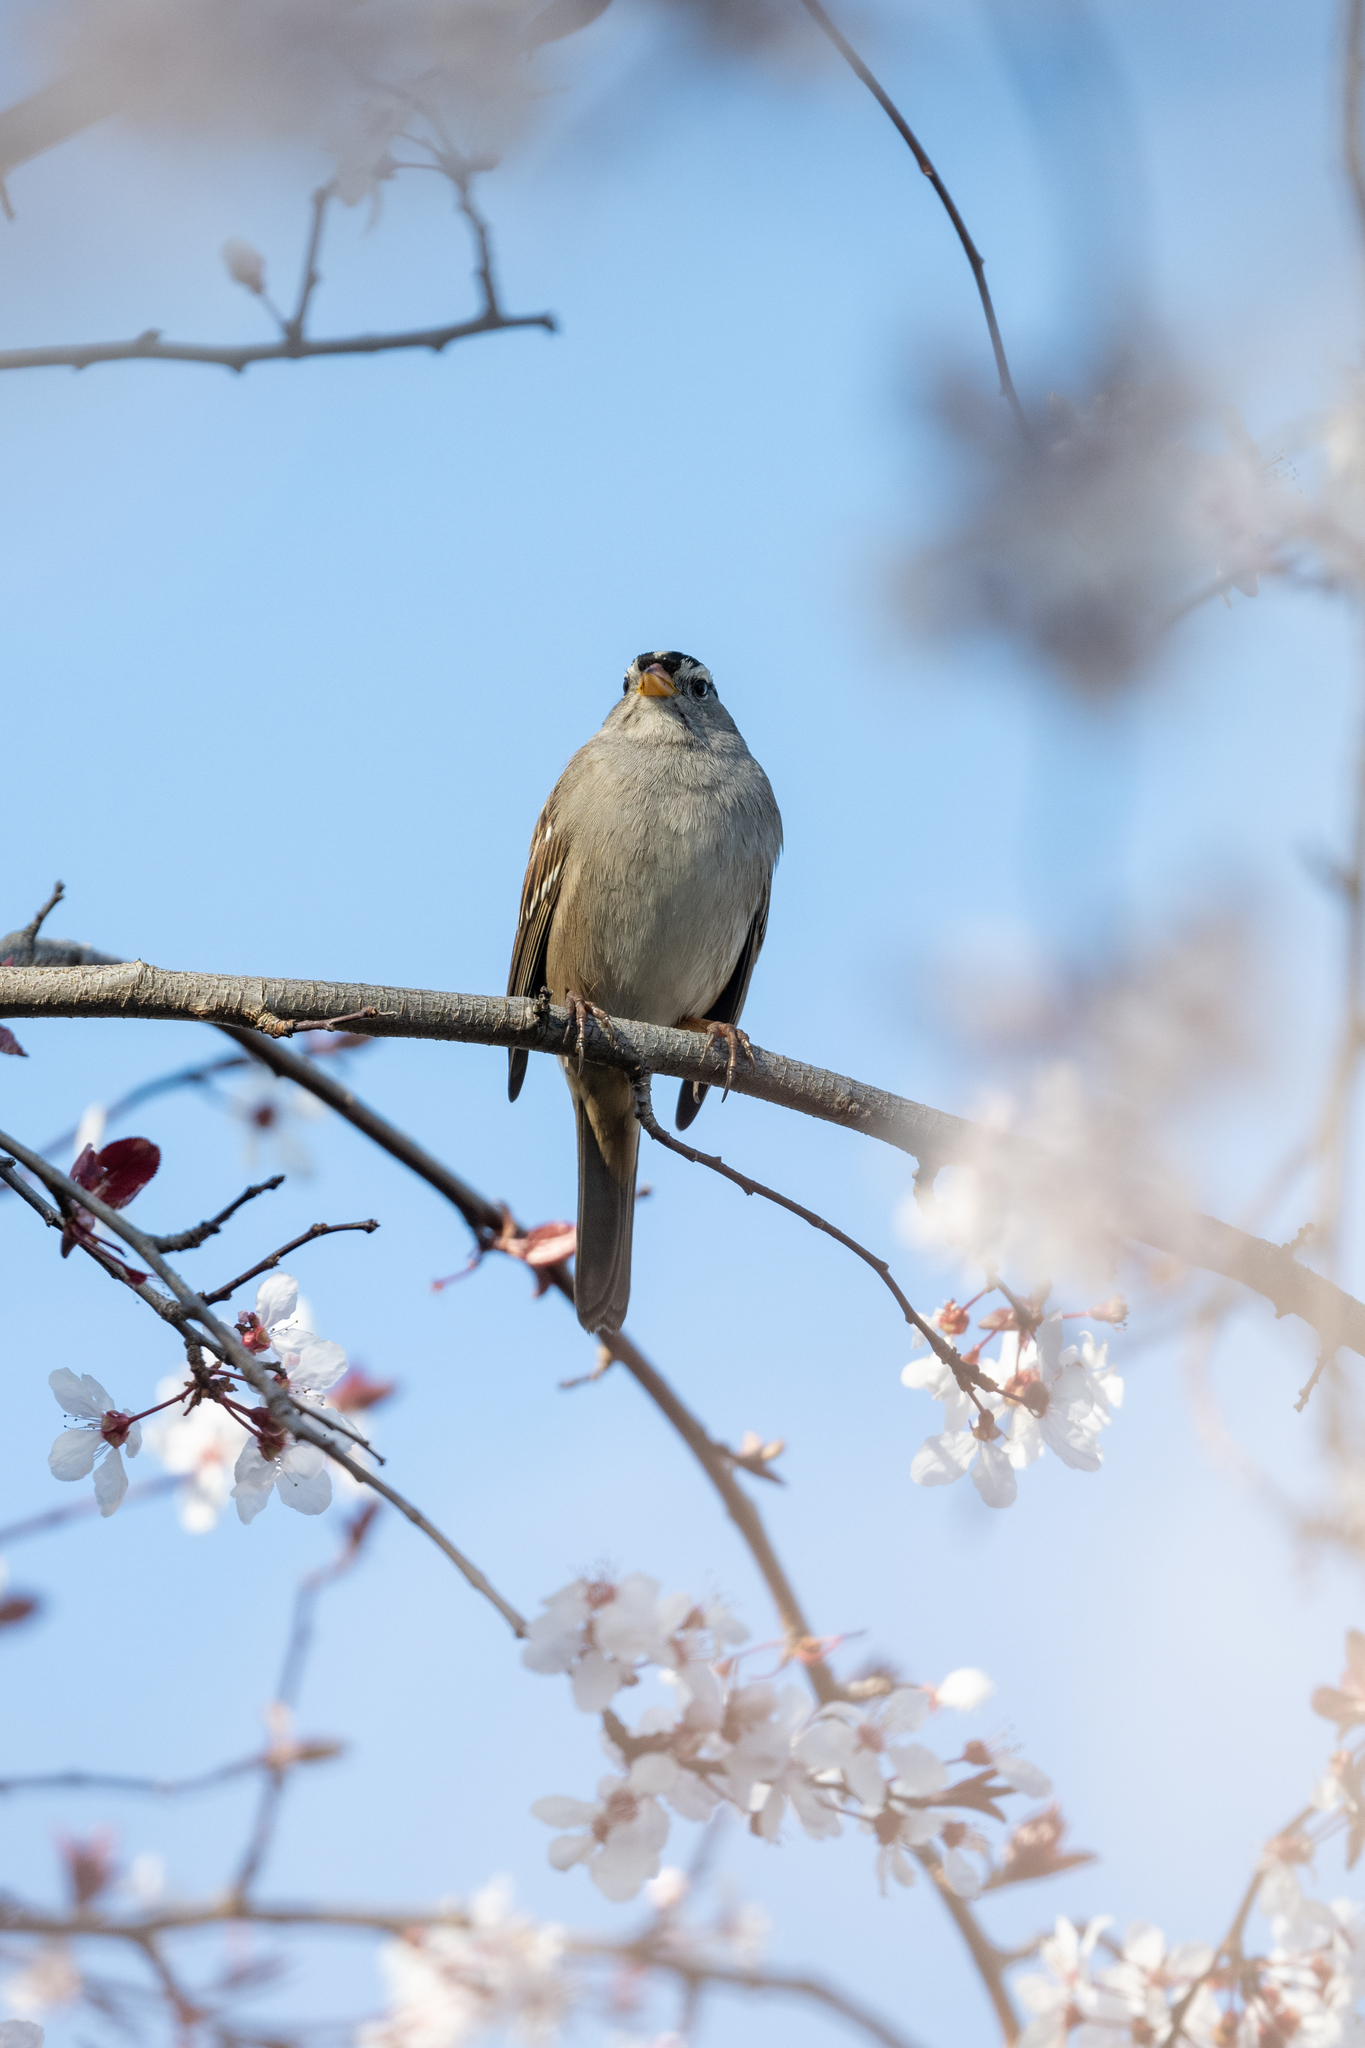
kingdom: Animalia
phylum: Chordata
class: Aves
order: Passeriformes
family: Passerellidae
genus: Zonotrichia
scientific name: Zonotrichia leucophrys
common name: White-crowned sparrow
